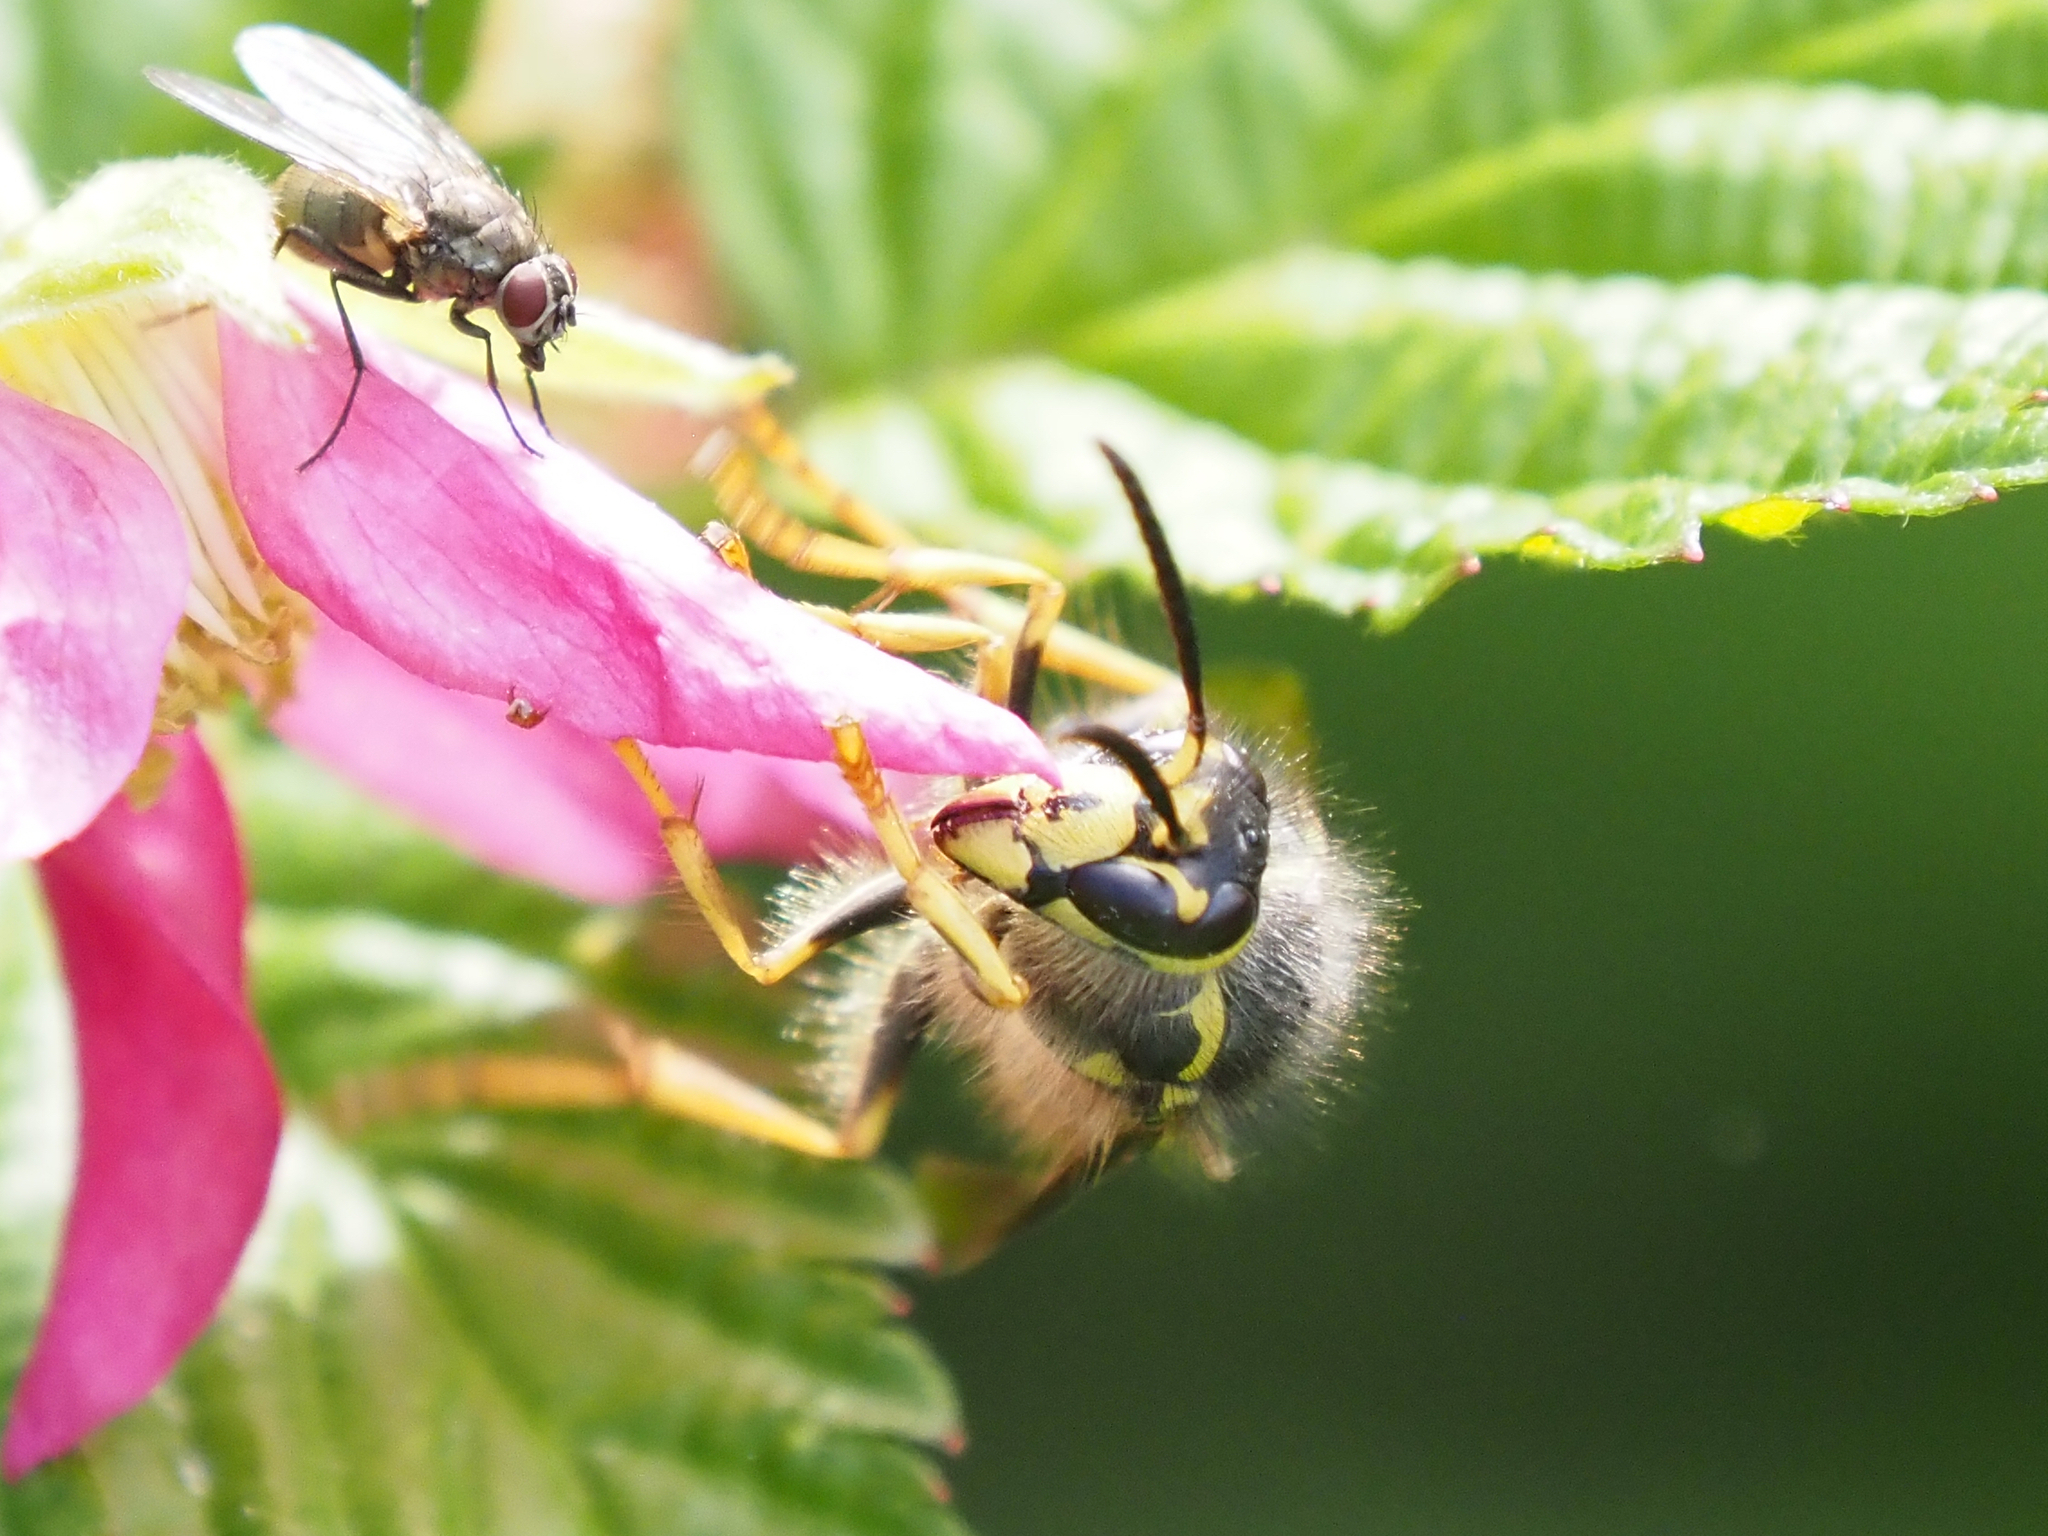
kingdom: Animalia
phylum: Arthropoda
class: Insecta
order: Hymenoptera
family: Vespidae
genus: Dolichovespula
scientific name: Dolichovespula arenaria
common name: Aerial yellowjacket
